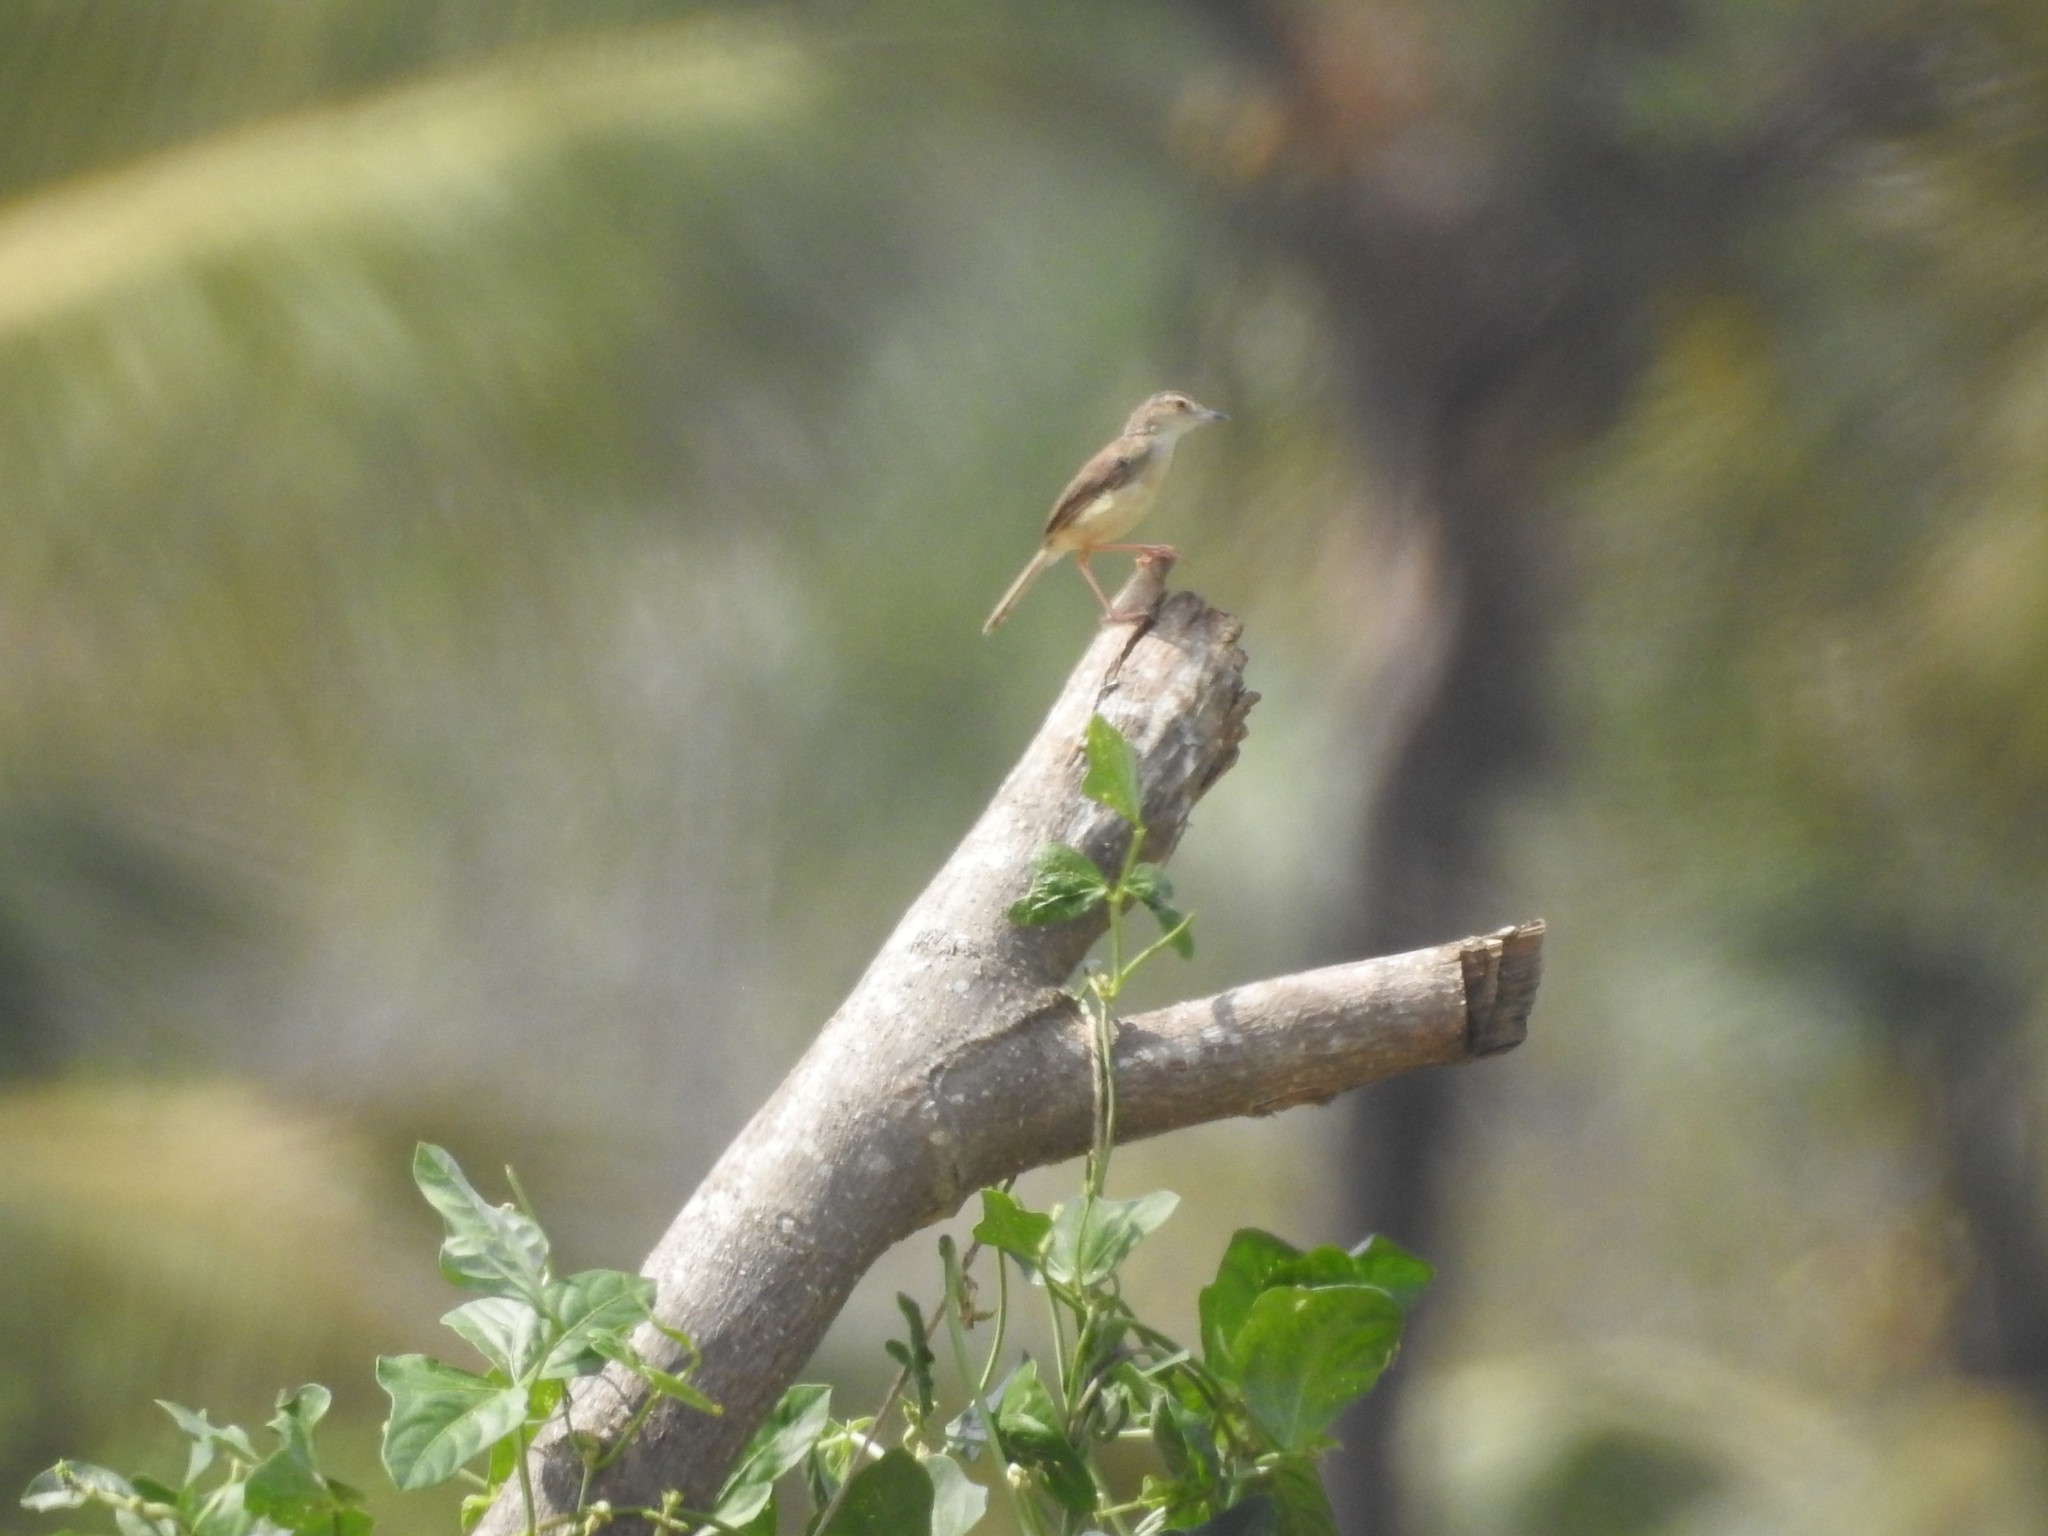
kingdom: Animalia
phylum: Chordata
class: Aves
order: Passeriformes
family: Cisticolidae
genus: Prinia
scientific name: Prinia inornata
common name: Plain prinia
